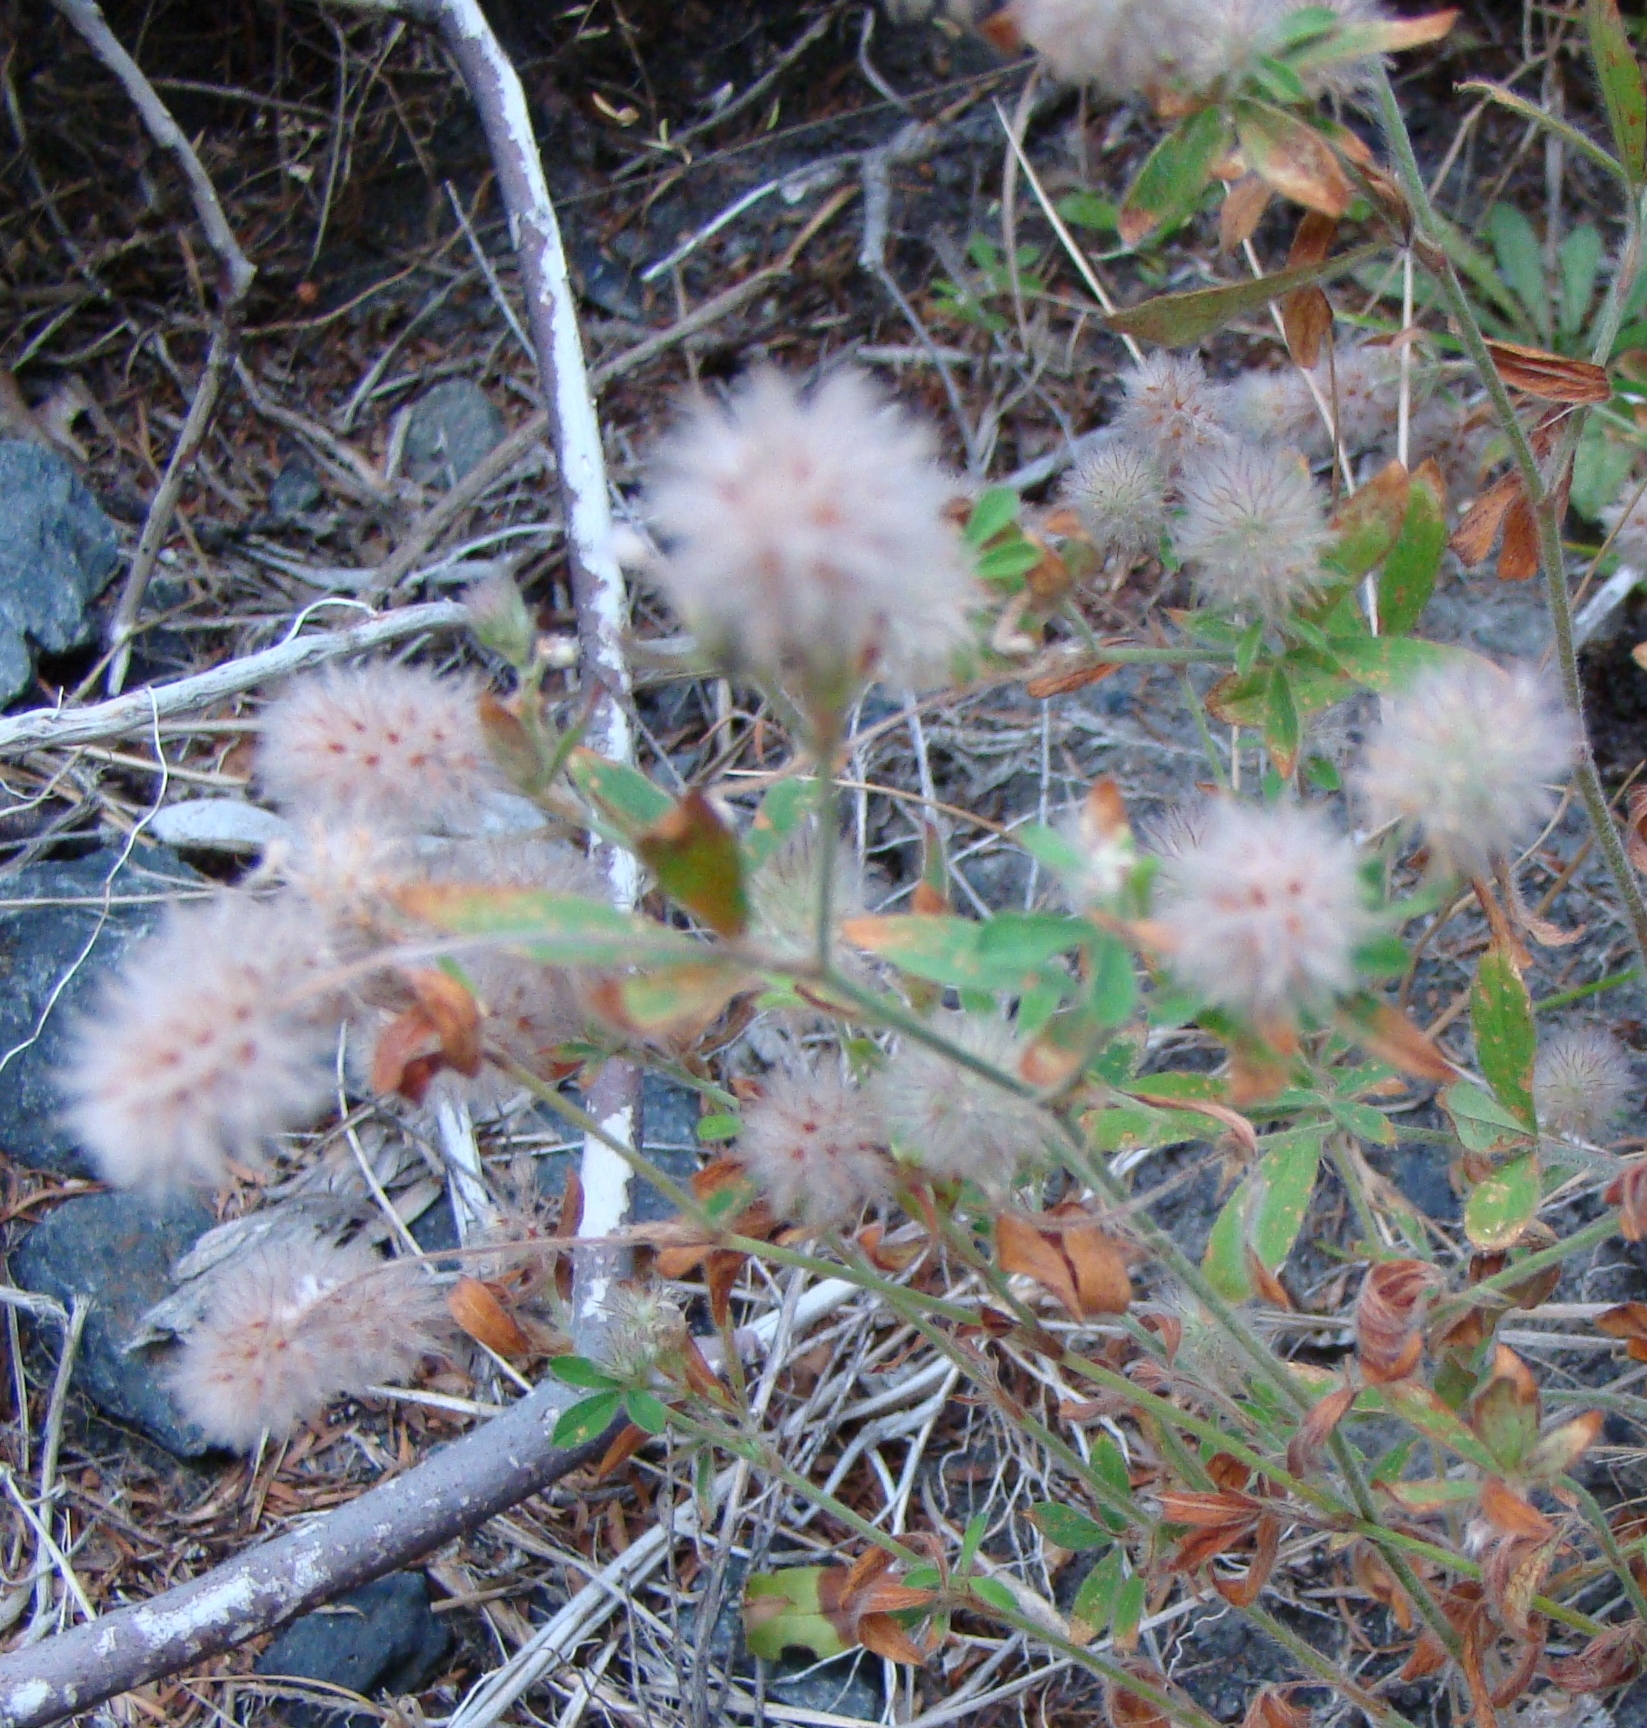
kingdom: Plantae
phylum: Tracheophyta
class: Magnoliopsida
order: Fabales
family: Fabaceae
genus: Trifolium
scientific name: Trifolium arvense
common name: Hare's-foot clover
